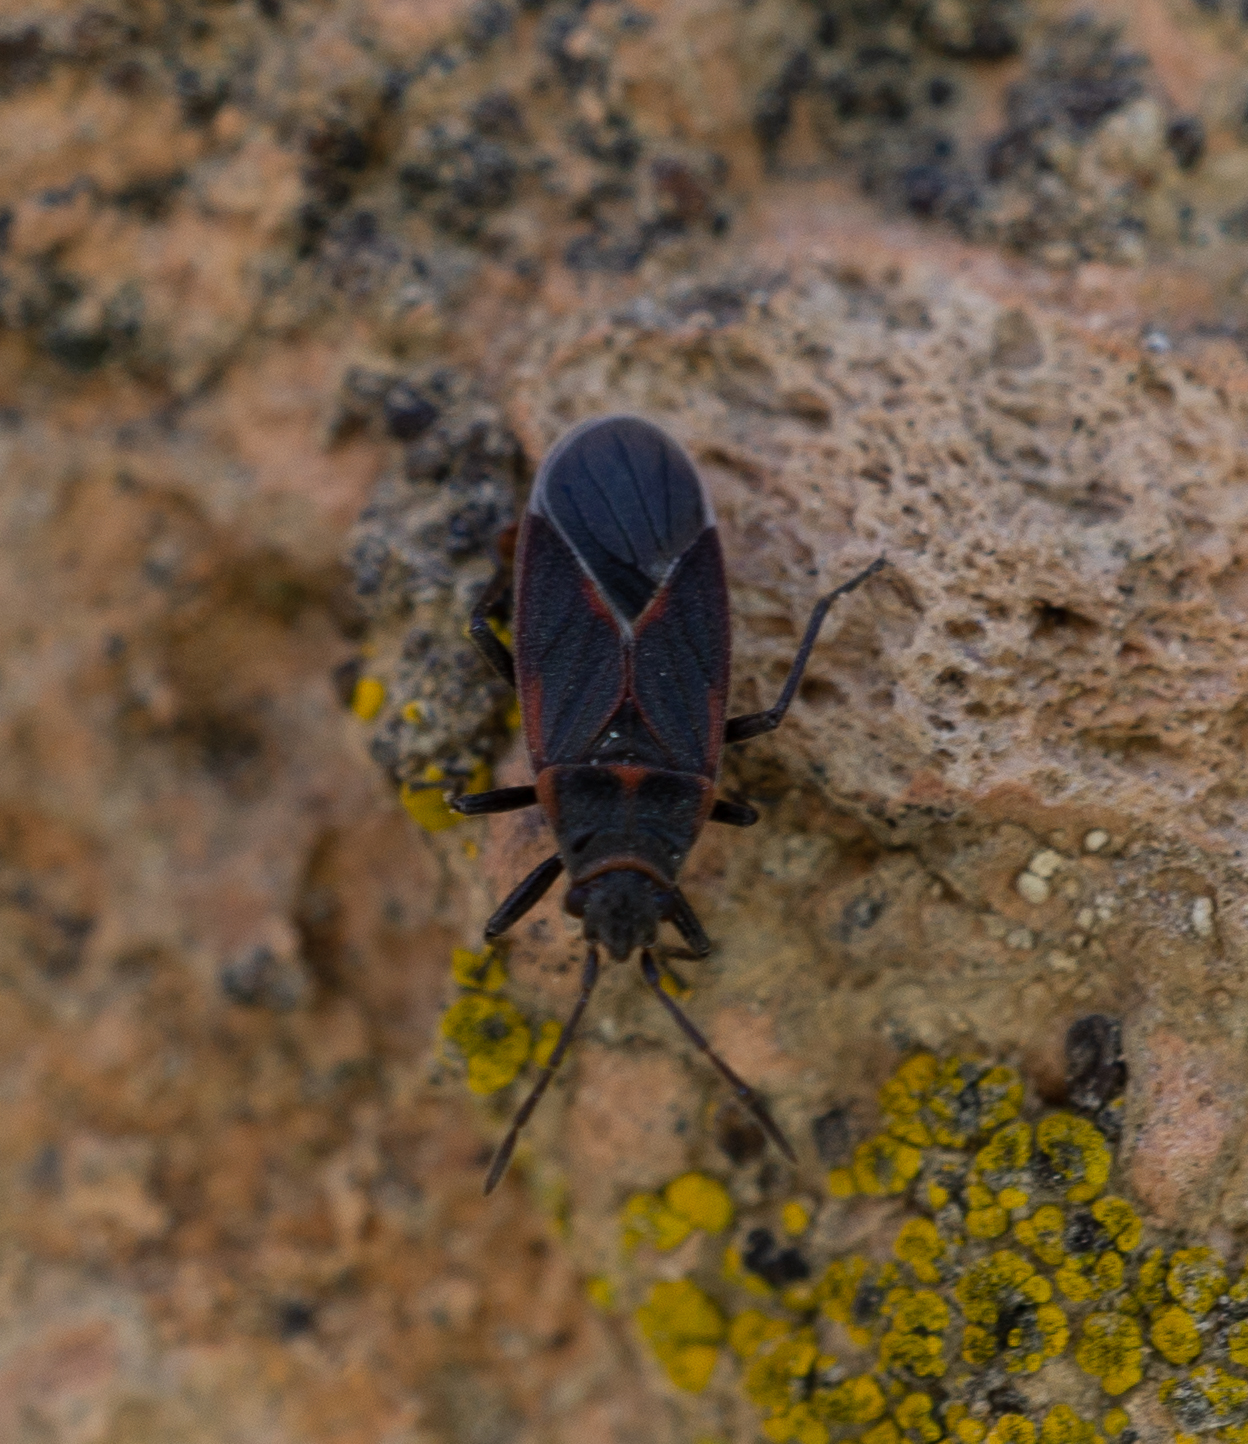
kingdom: Animalia
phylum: Arthropoda
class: Insecta
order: Hemiptera
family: Lygaeidae
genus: Melacoryphus
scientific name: Melacoryphus admirabilis
